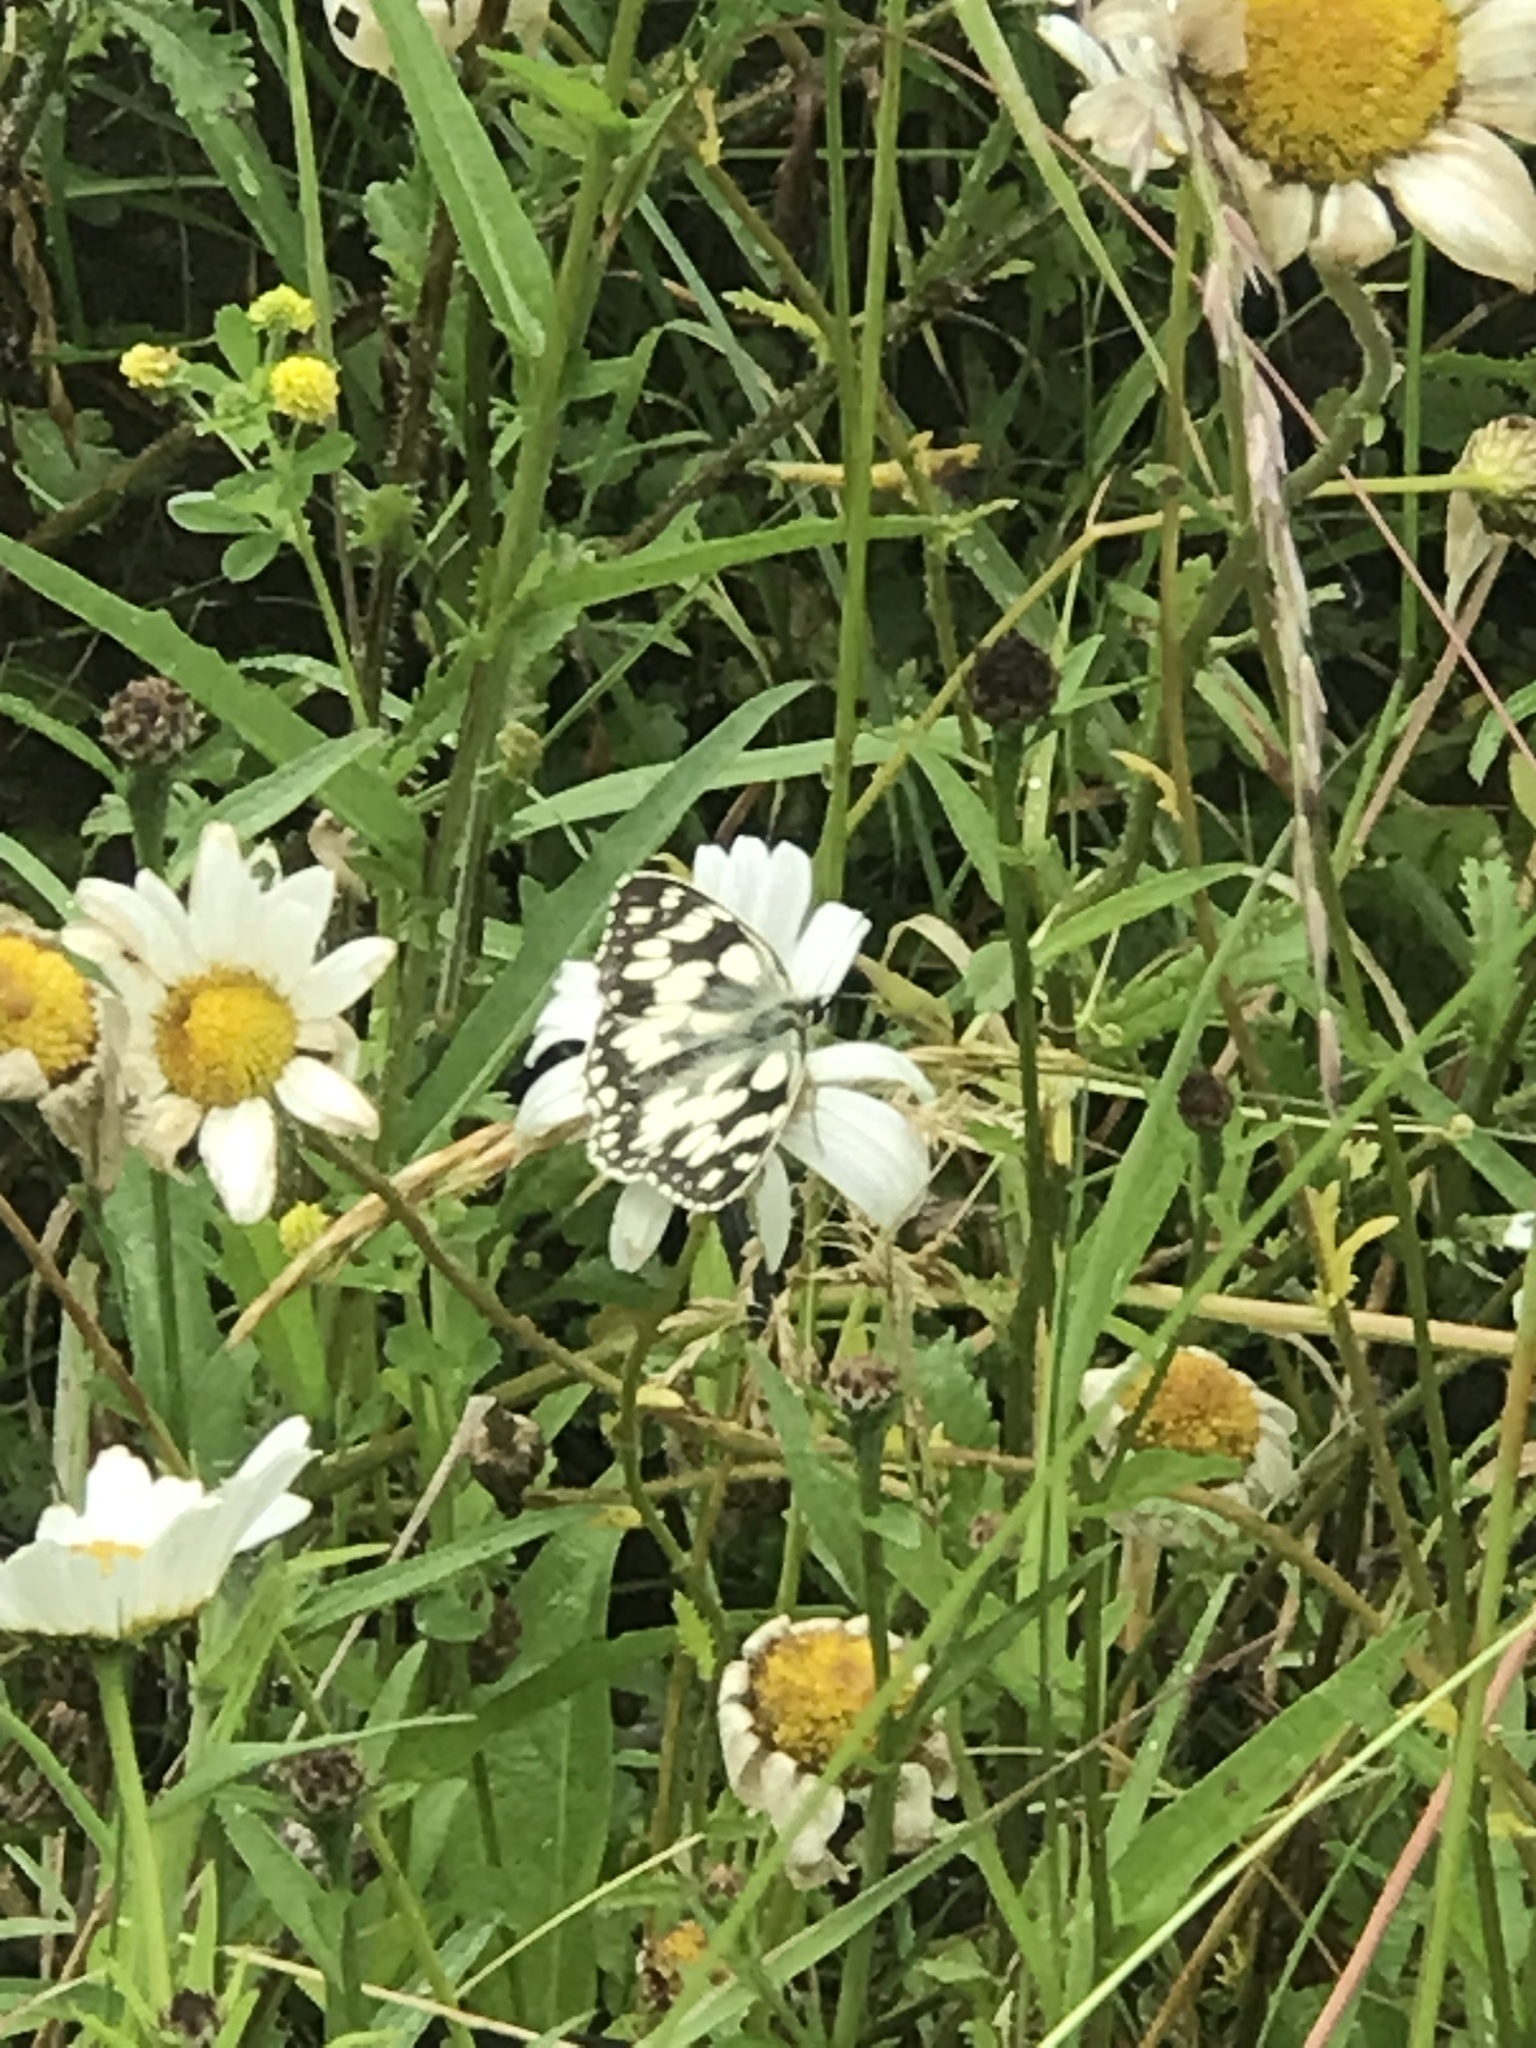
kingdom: Animalia
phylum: Arthropoda
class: Insecta
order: Lepidoptera
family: Nymphalidae
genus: Melanargia
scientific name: Melanargia galathea
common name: Marbled white
